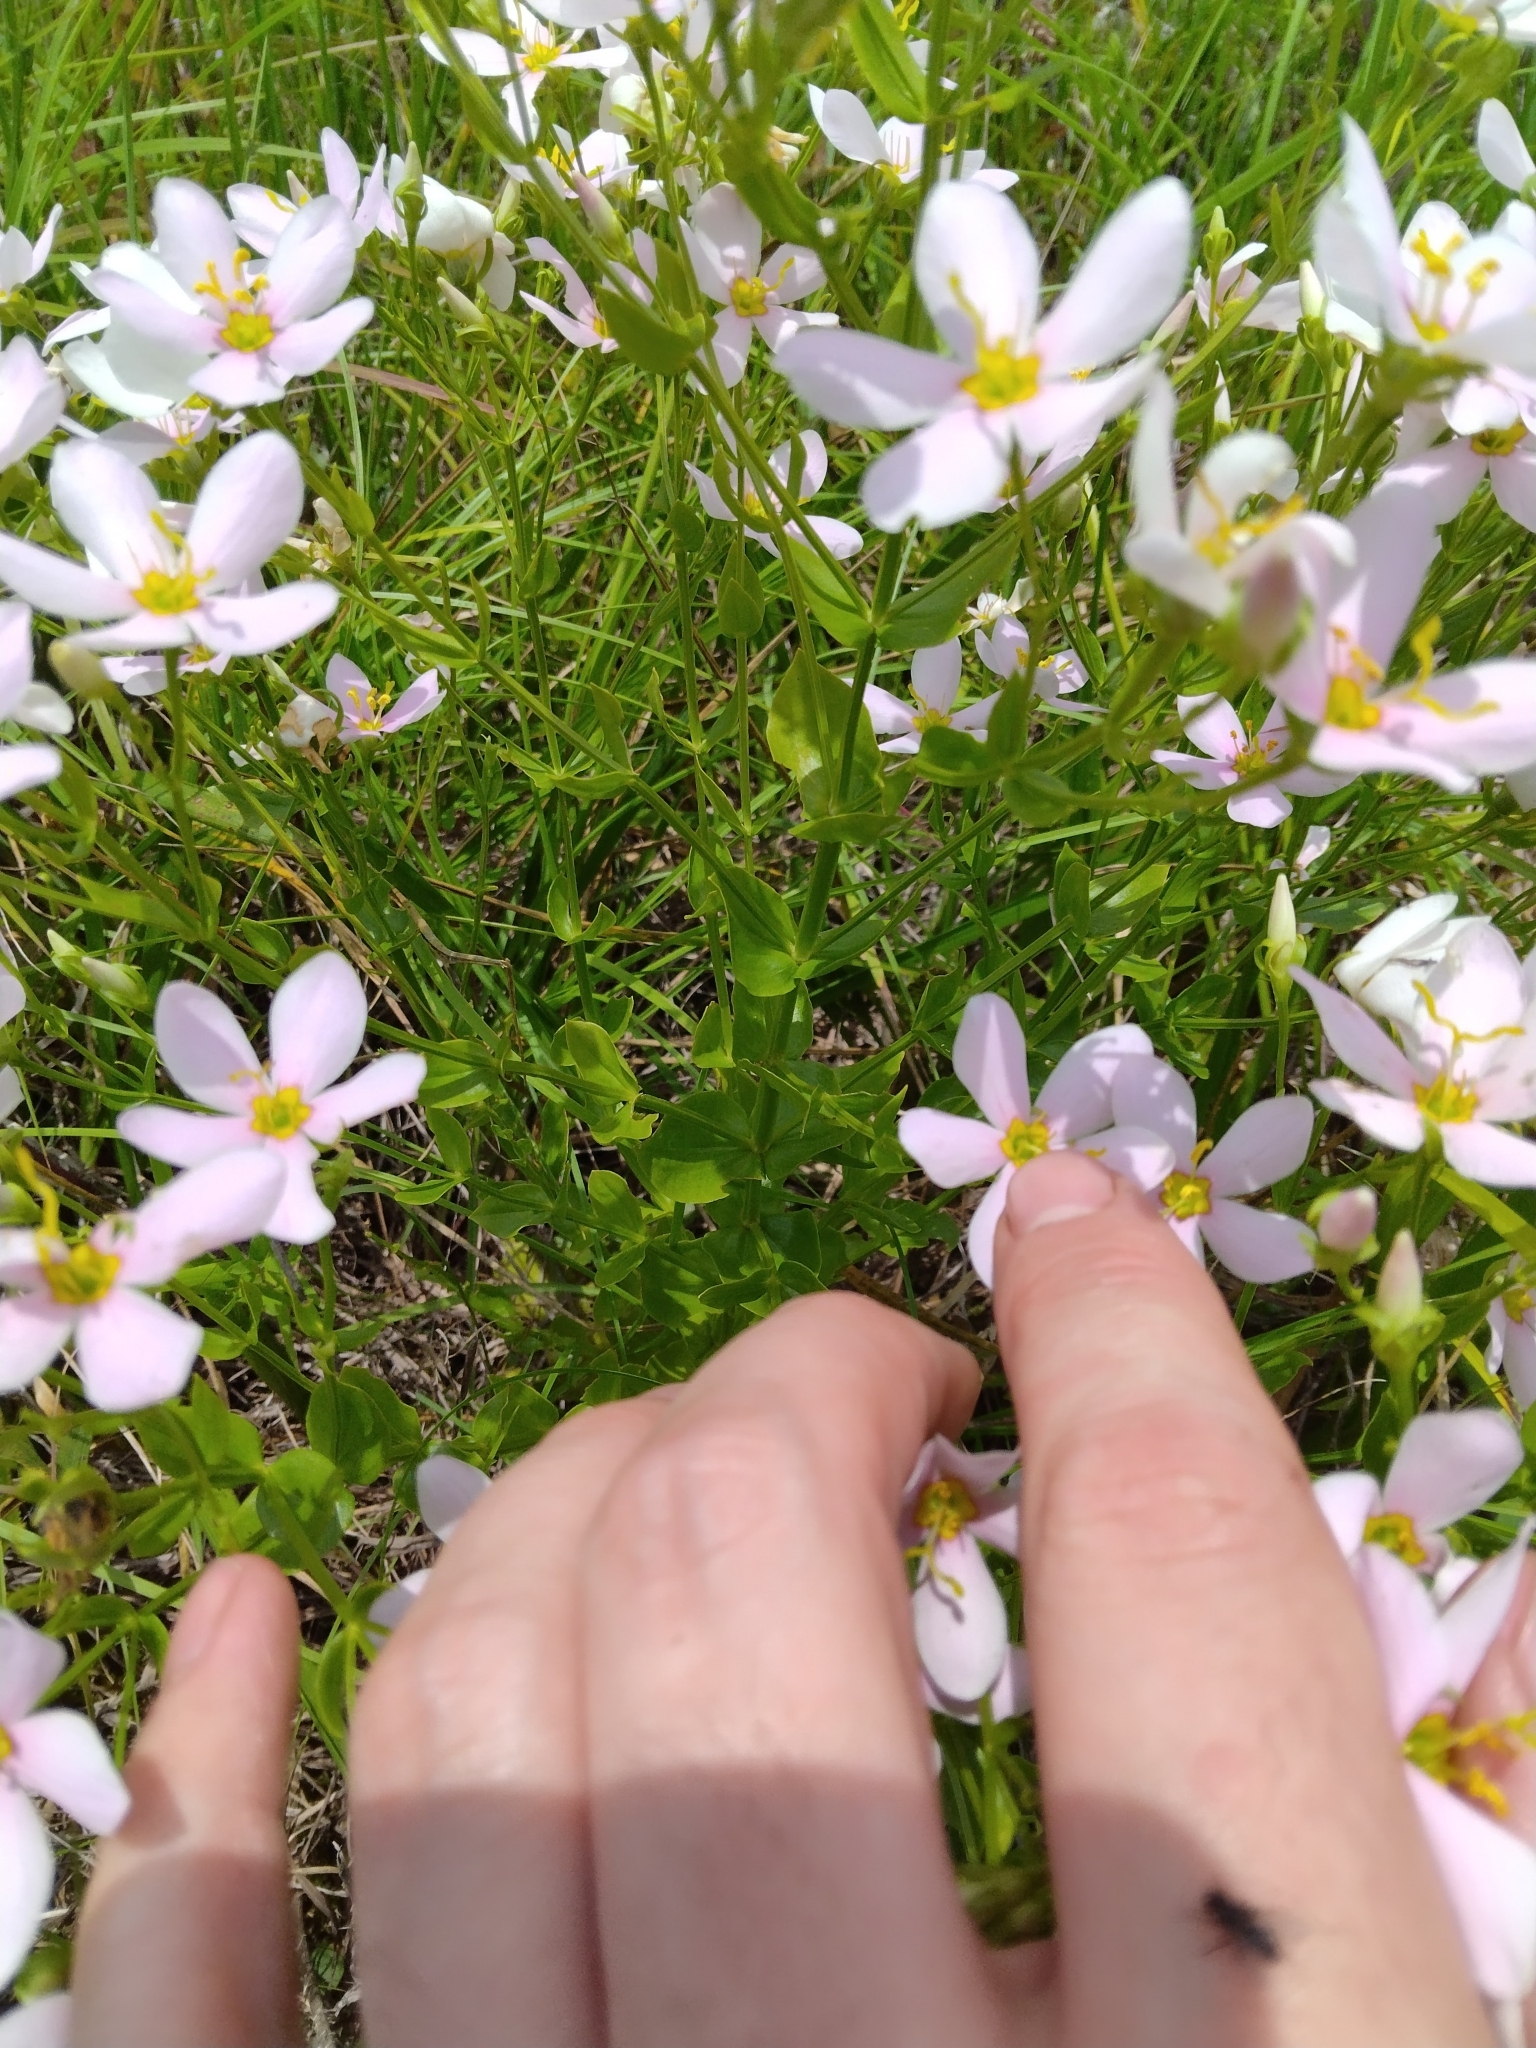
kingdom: Plantae
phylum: Tracheophyta
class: Magnoliopsida
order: Gentianales
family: Gentianaceae
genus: Sabatia
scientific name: Sabatia angularis
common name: Rose-pink
